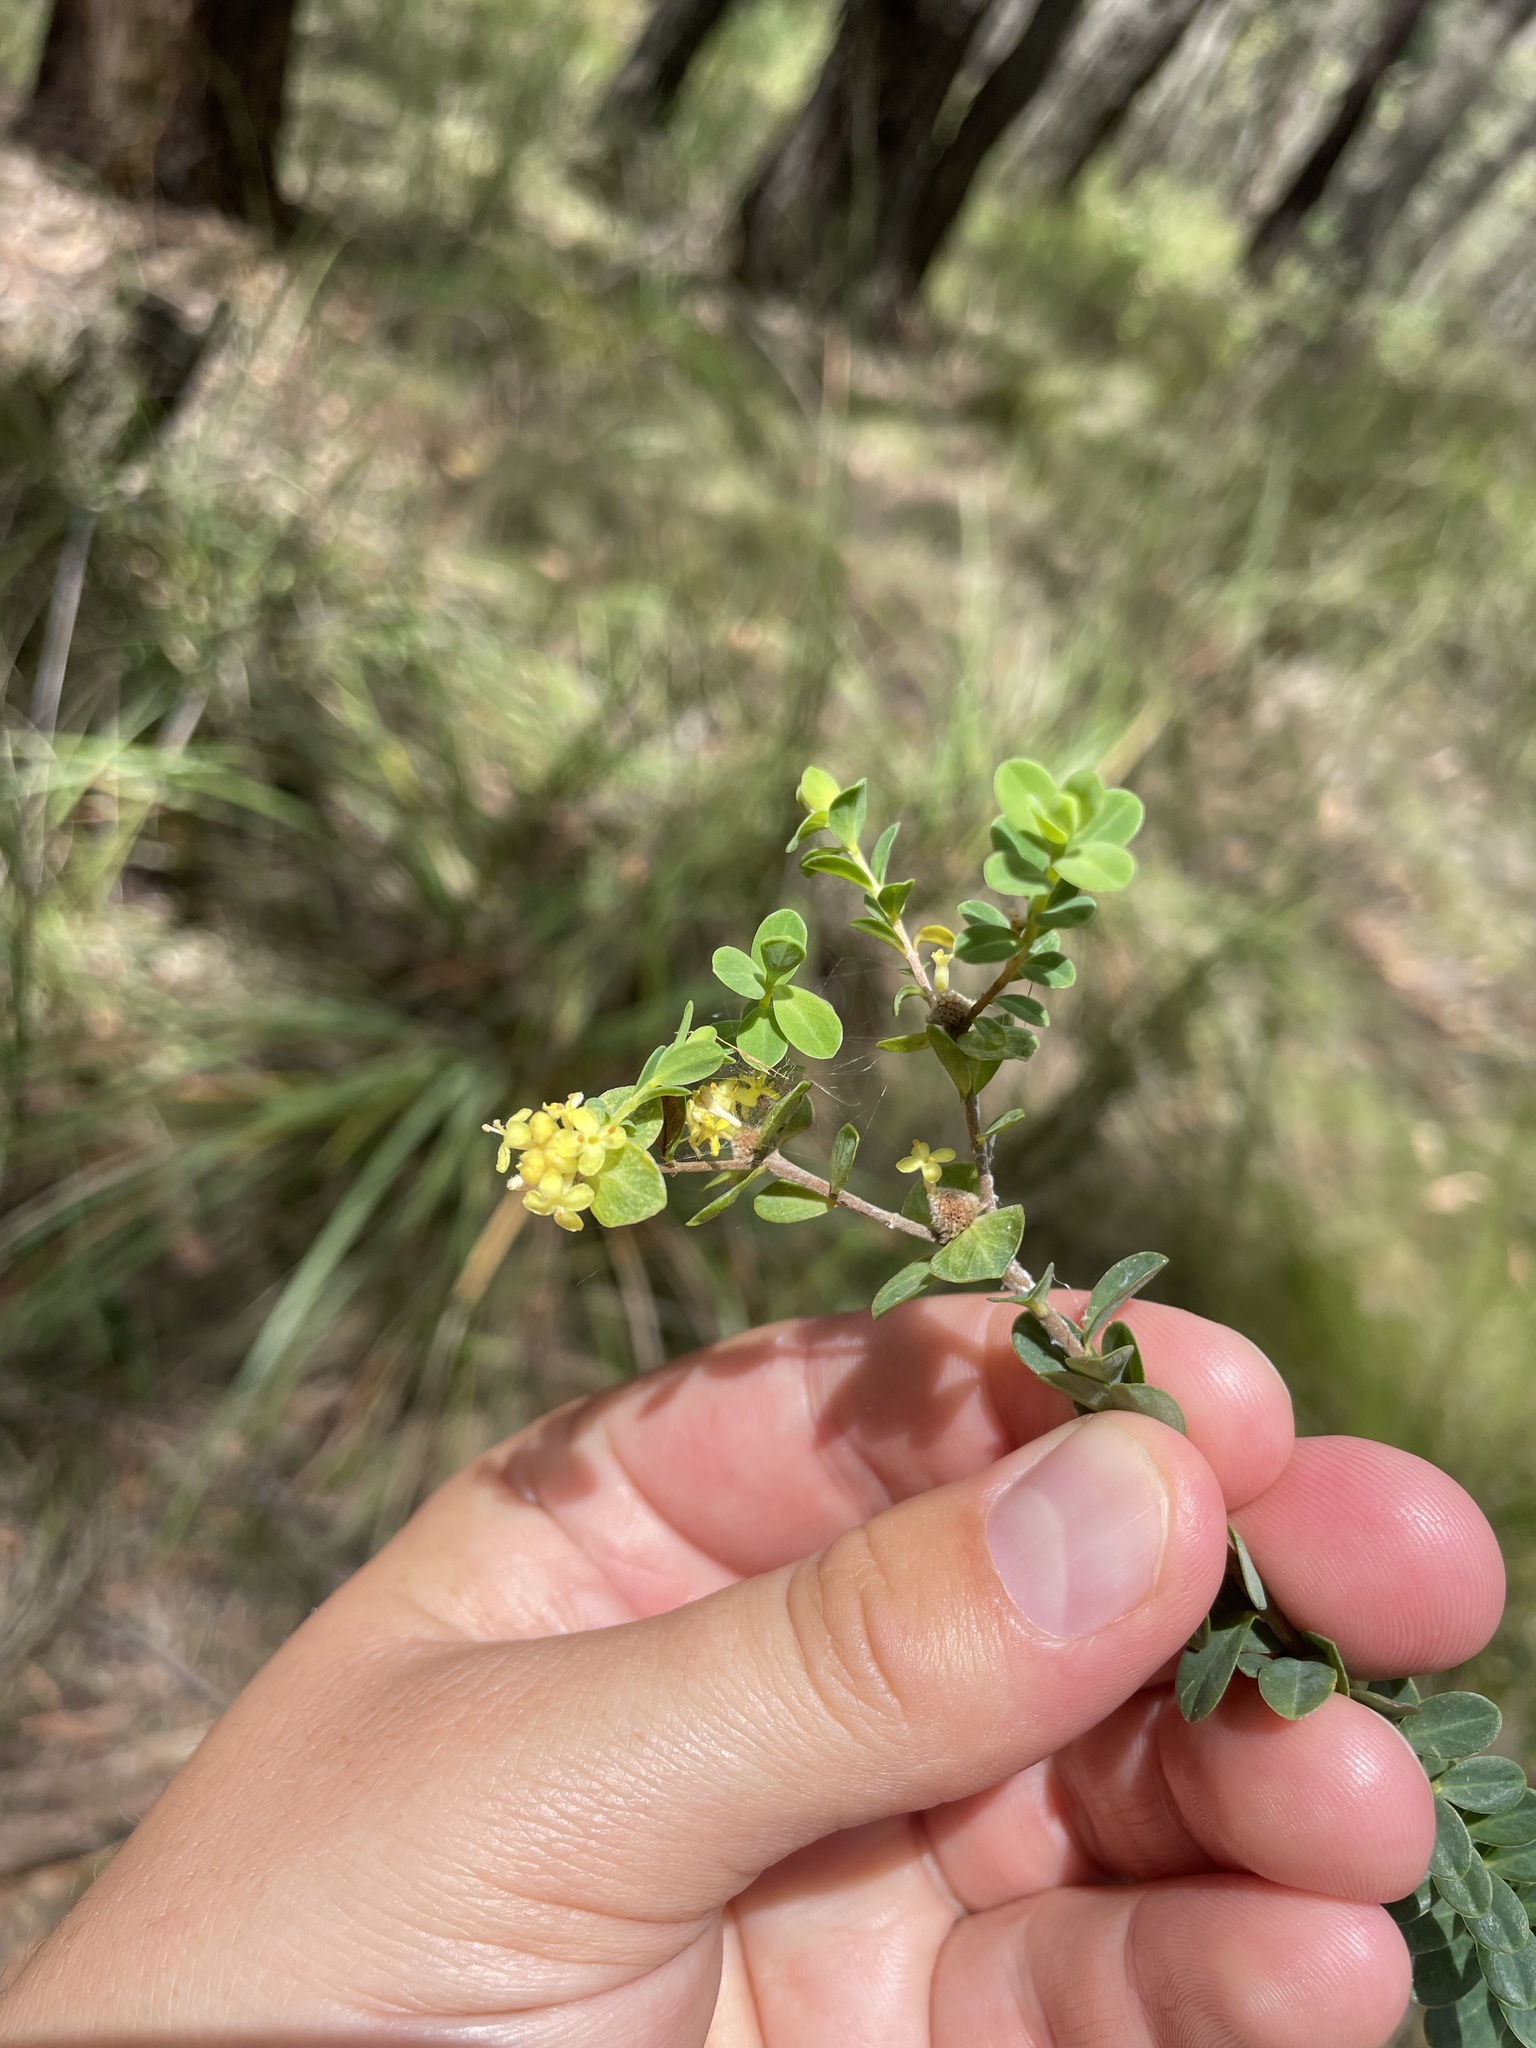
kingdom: Plantae
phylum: Tracheophyta
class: Magnoliopsida
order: Malvales
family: Thymelaeaceae
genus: Pimelea
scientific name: Pimelea flava
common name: Yellow riceflower
